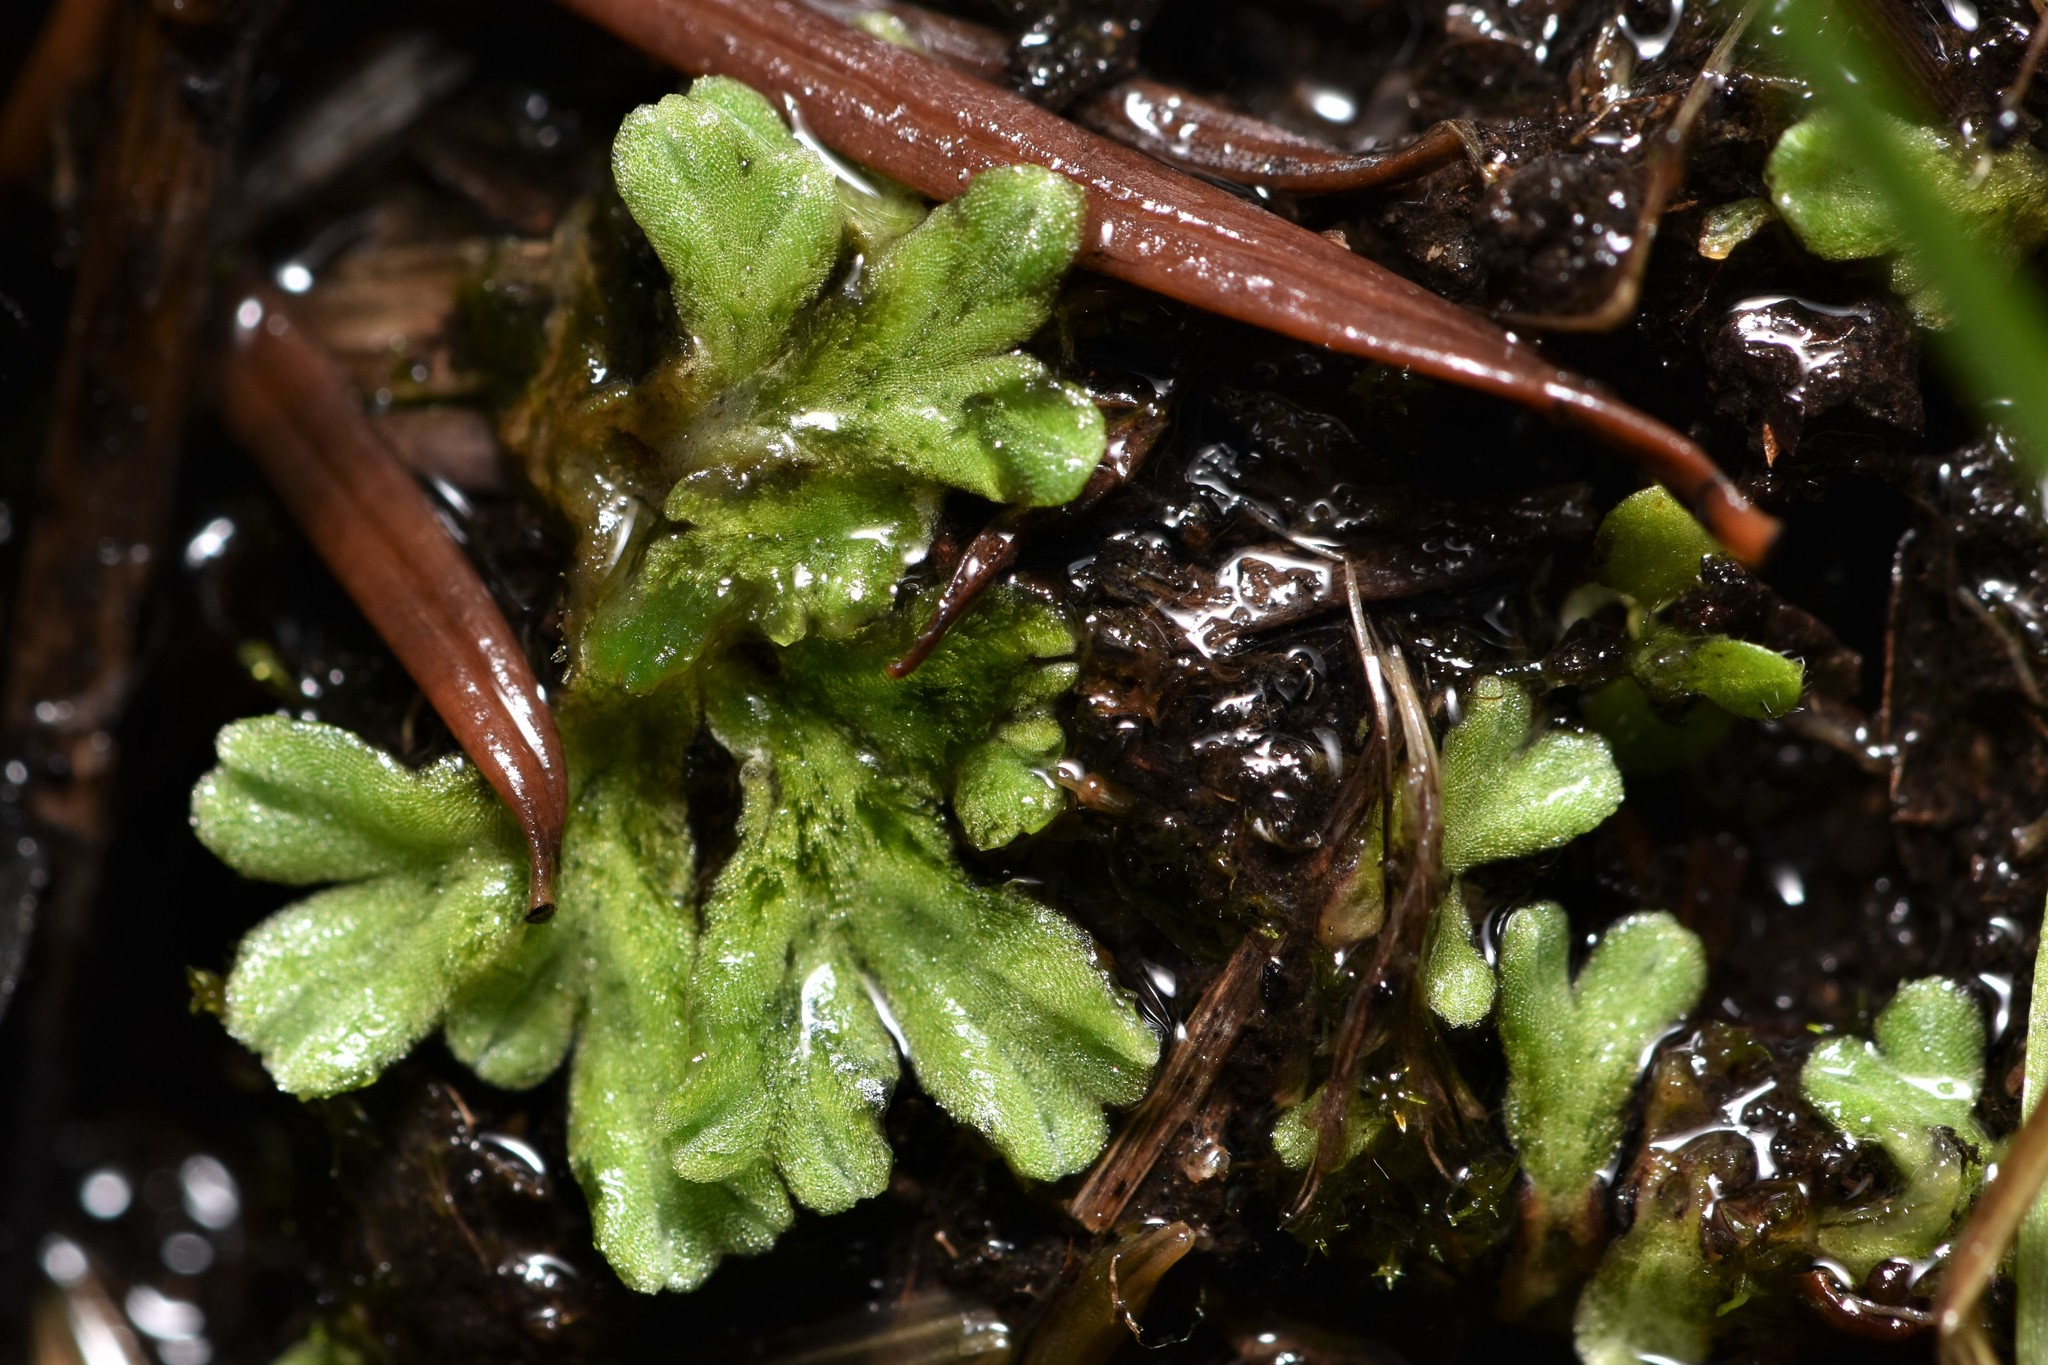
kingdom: Plantae
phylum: Marchantiophyta
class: Marchantiopsida
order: Marchantiales
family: Ricciaceae
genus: Riccia
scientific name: Riccia sorocarpa
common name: Common crystalwort
